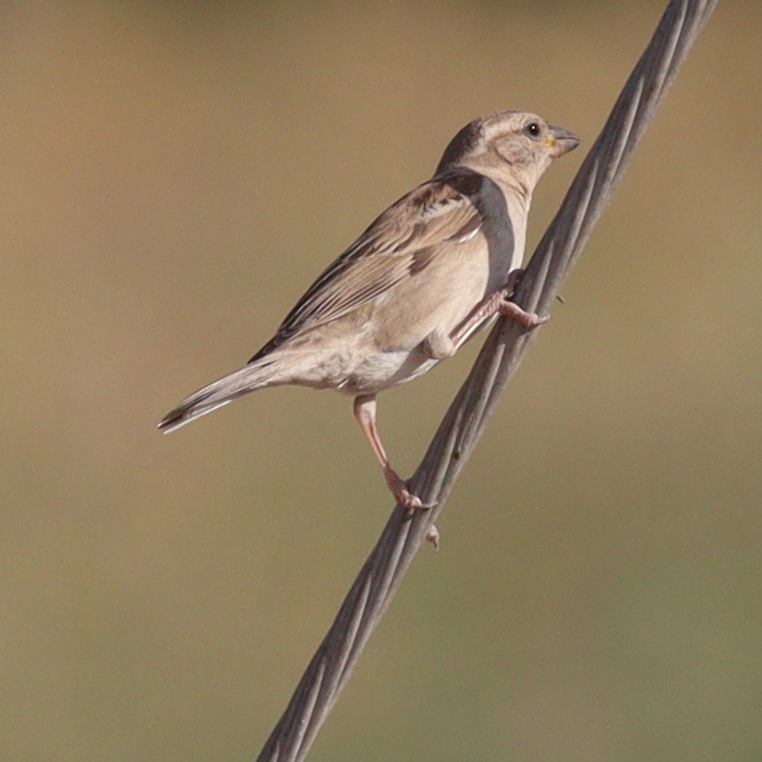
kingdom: Animalia
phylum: Chordata
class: Aves
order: Passeriformes
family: Passeridae
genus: Passer
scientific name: Passer domesticus
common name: House sparrow
